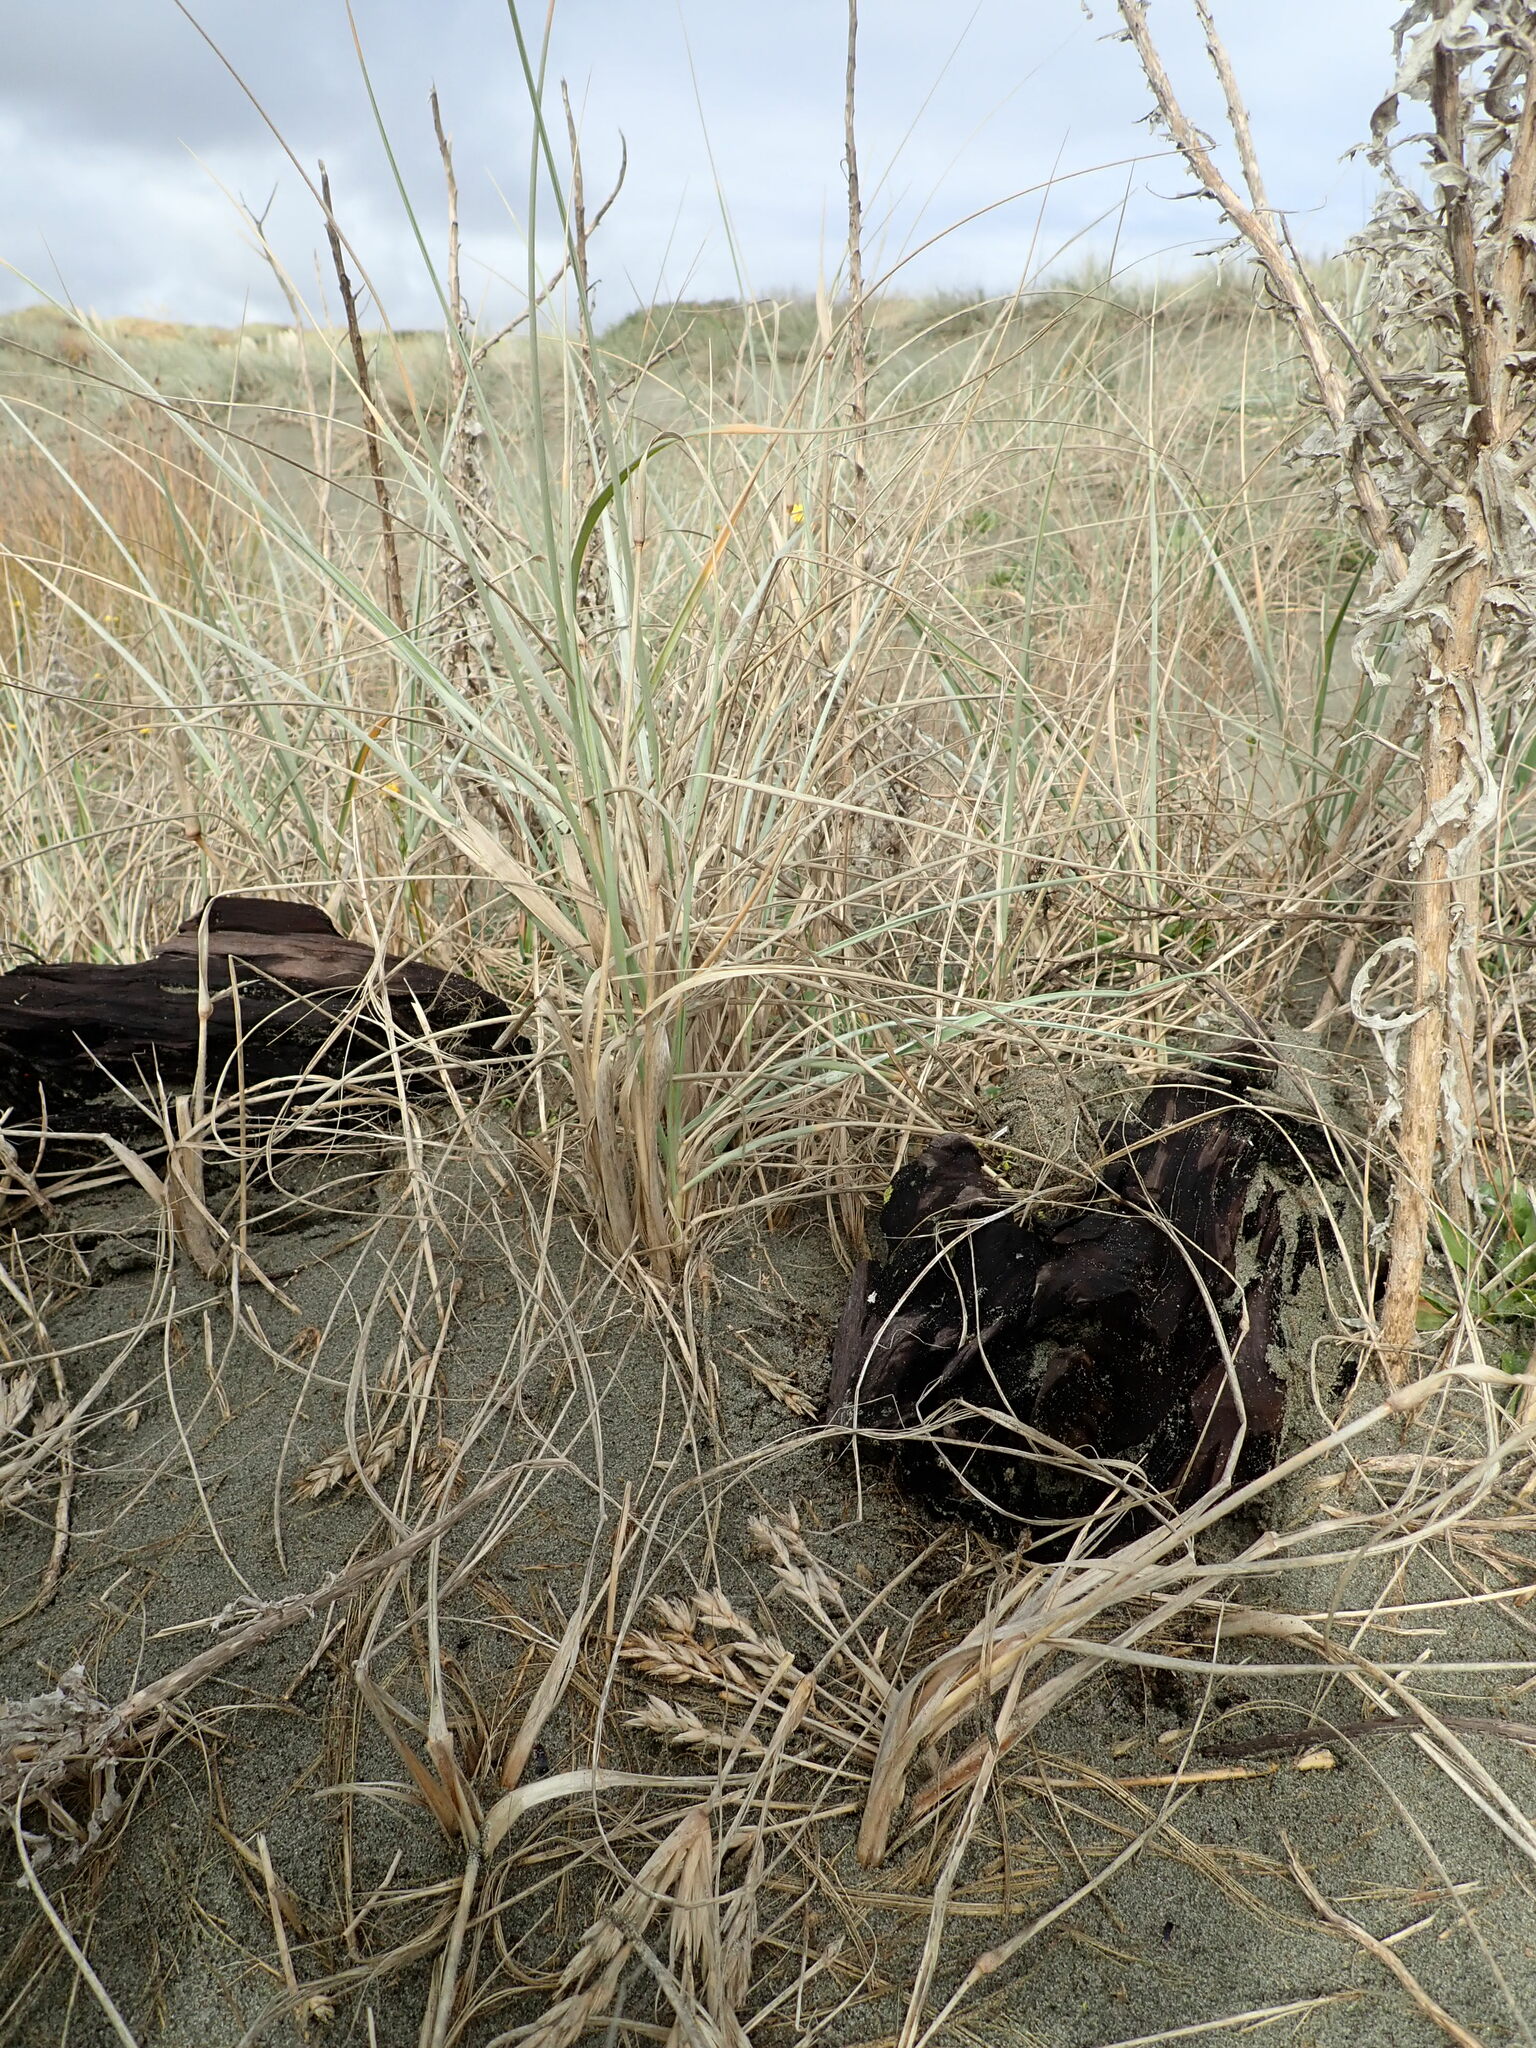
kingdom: Animalia
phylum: Arthropoda
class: Arachnida
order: Araneae
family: Theridiidae
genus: Latrodectus
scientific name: Latrodectus katipo
